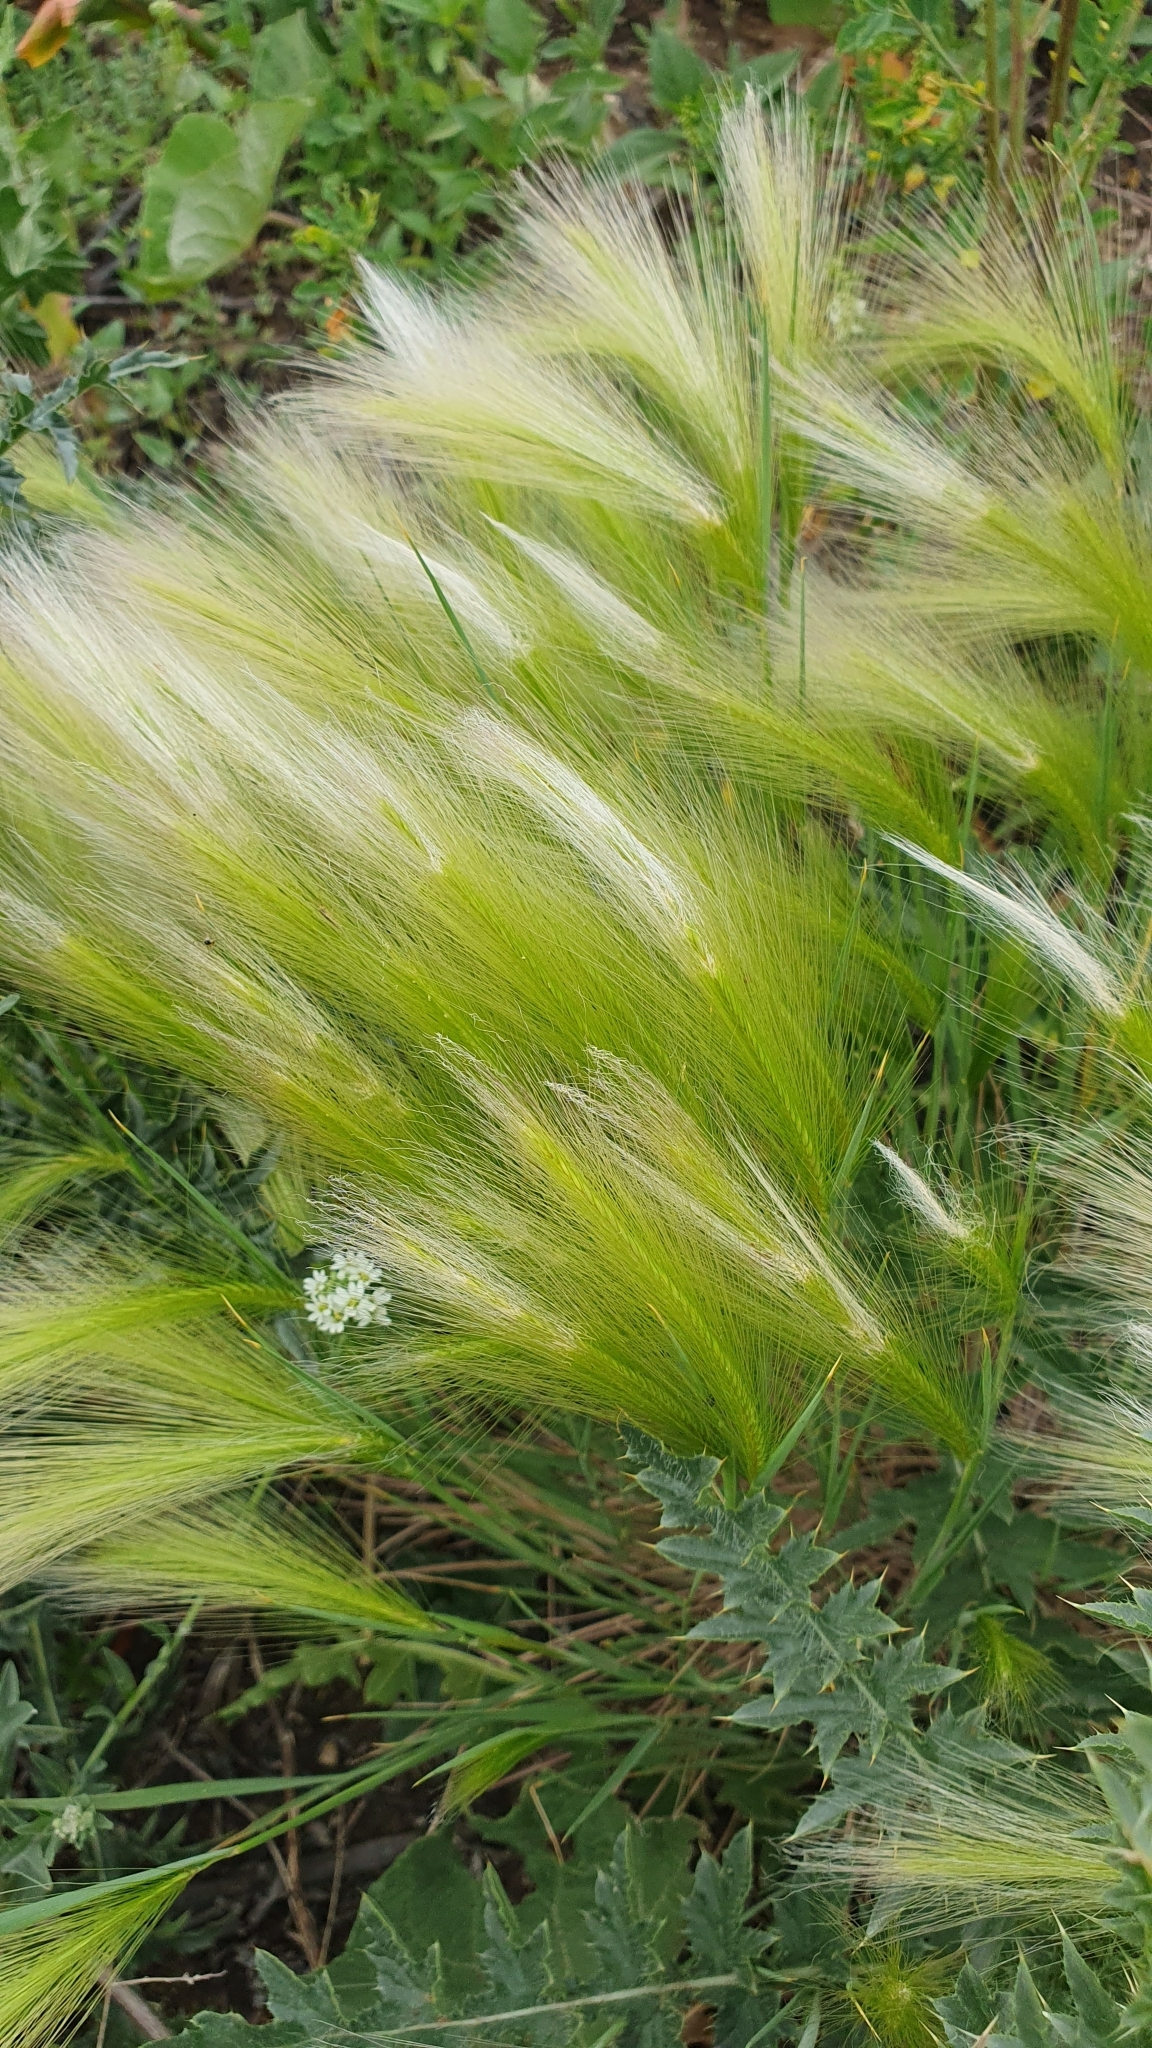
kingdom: Plantae
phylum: Tracheophyta
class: Liliopsida
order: Poales
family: Poaceae
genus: Hordeum
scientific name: Hordeum jubatum
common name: Foxtail barley
